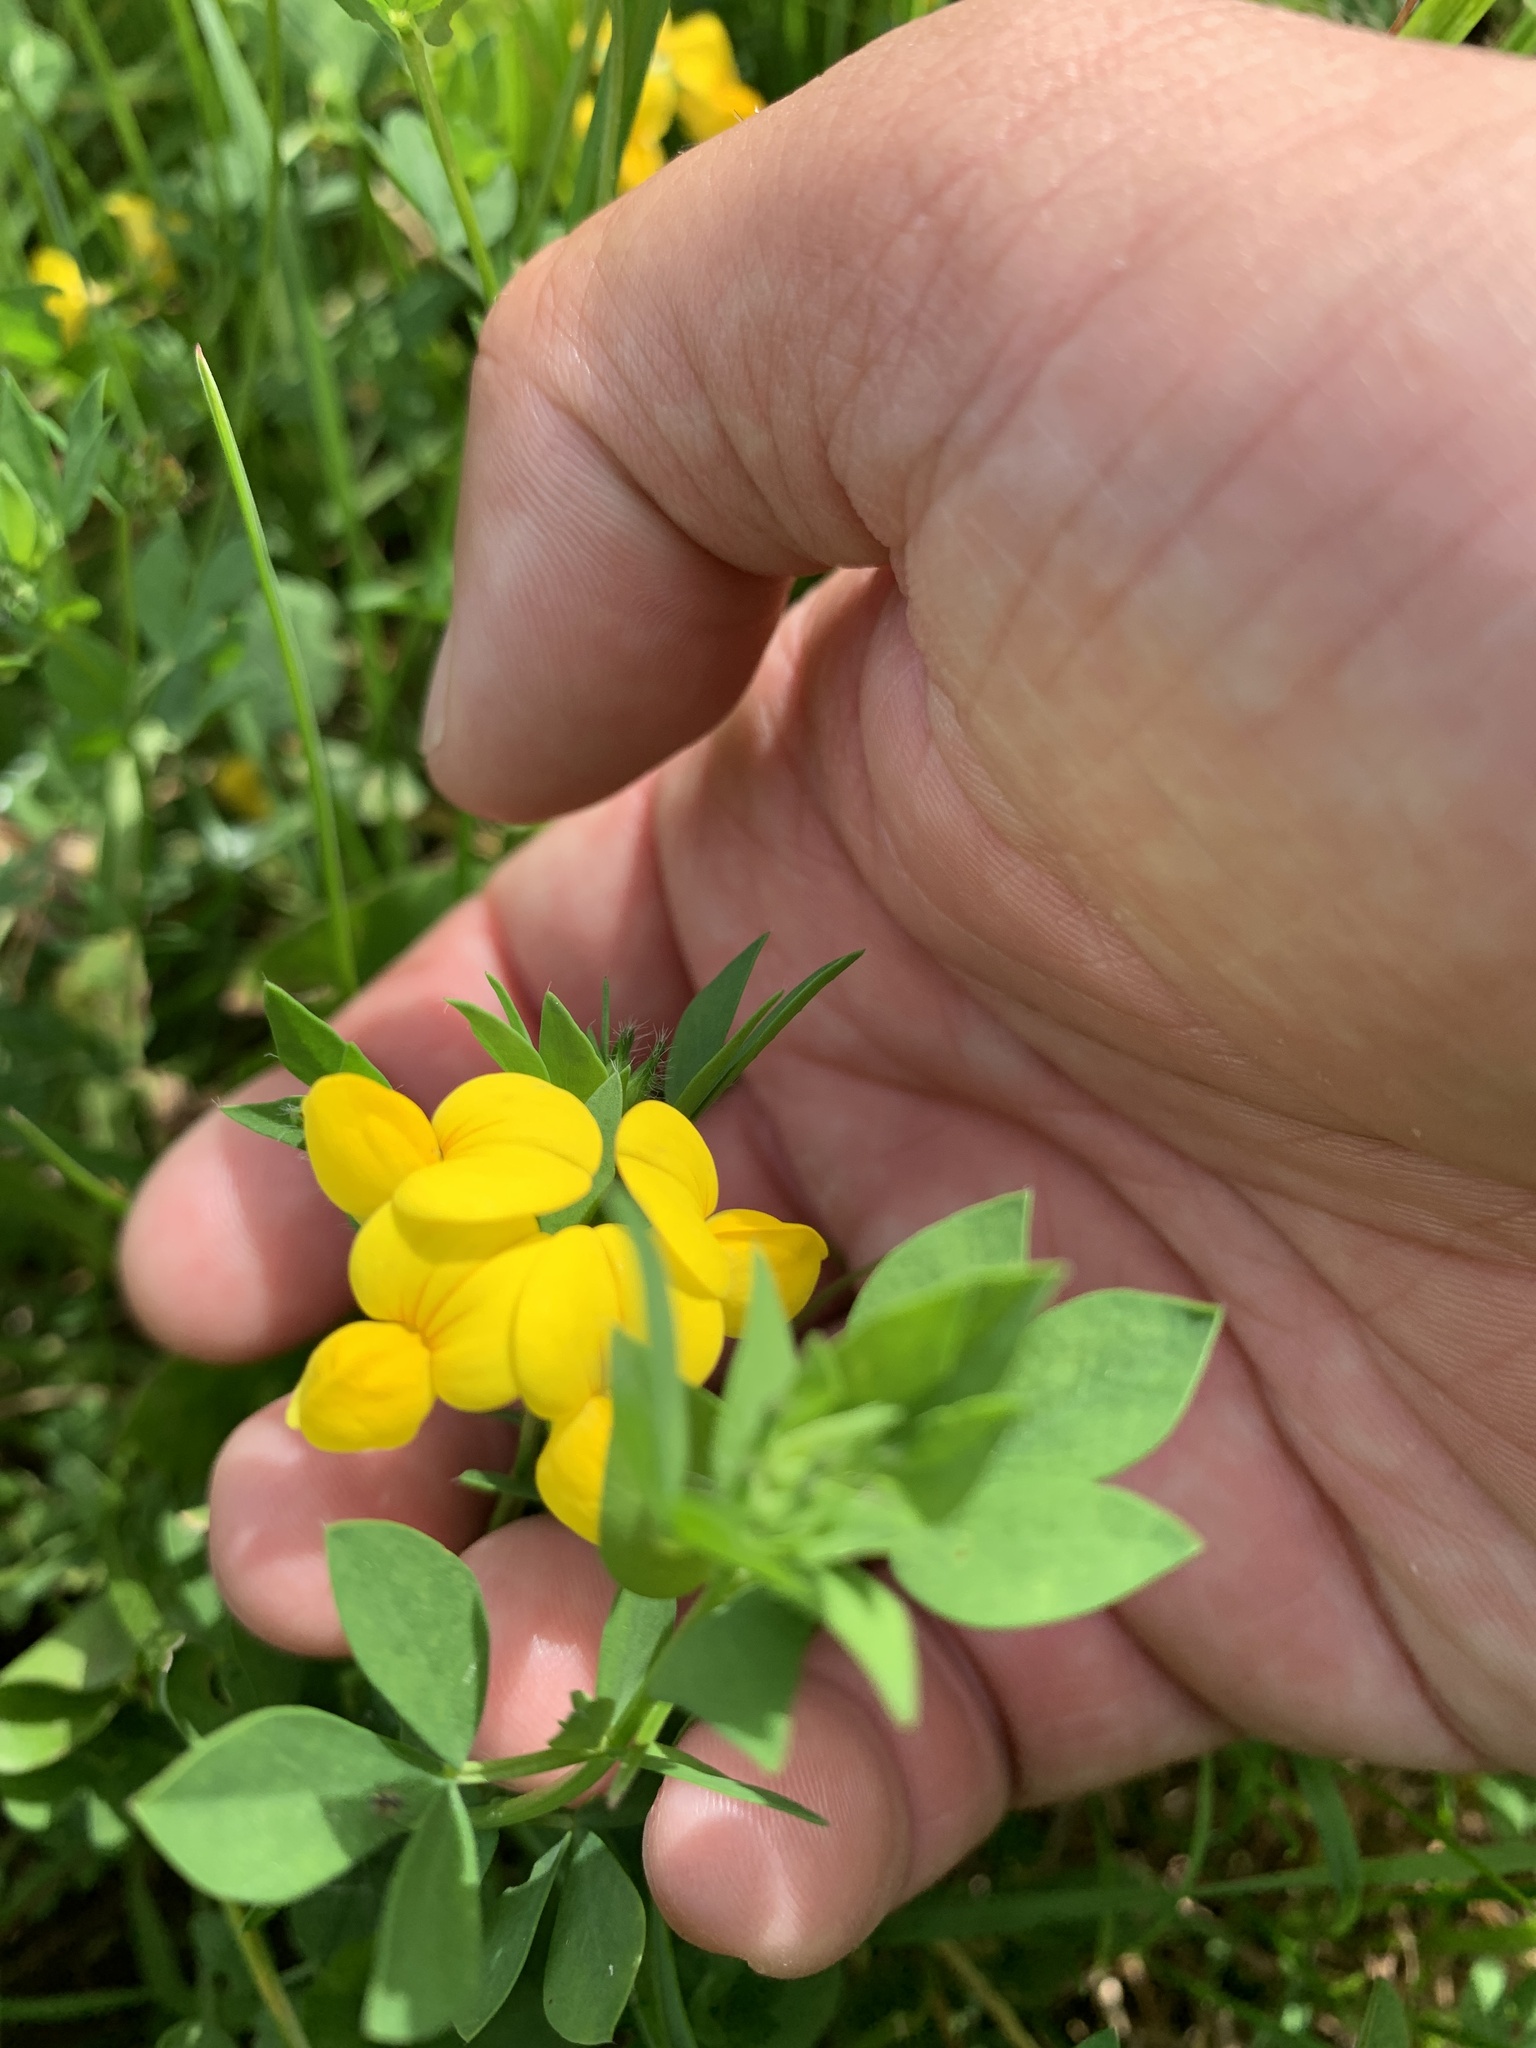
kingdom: Plantae
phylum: Tracheophyta
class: Magnoliopsida
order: Fabales
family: Fabaceae
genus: Lotus
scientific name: Lotus corniculatus
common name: Common bird's-foot-trefoil
